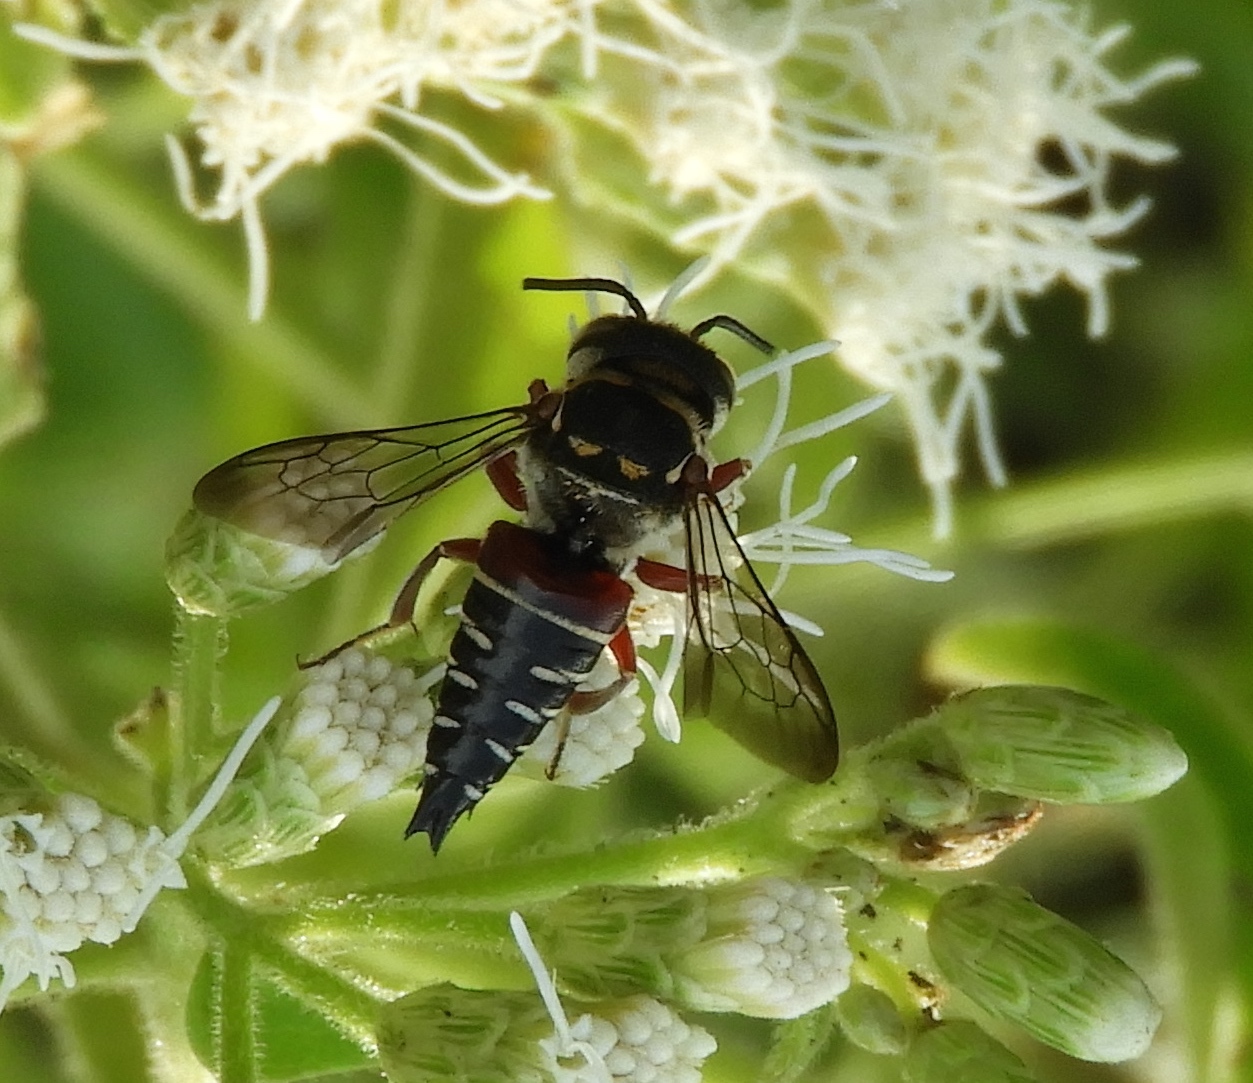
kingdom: Animalia
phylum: Arthropoda
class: Insecta
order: Hymenoptera
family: Megachilidae
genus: Coelioxys
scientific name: Coelioxys
